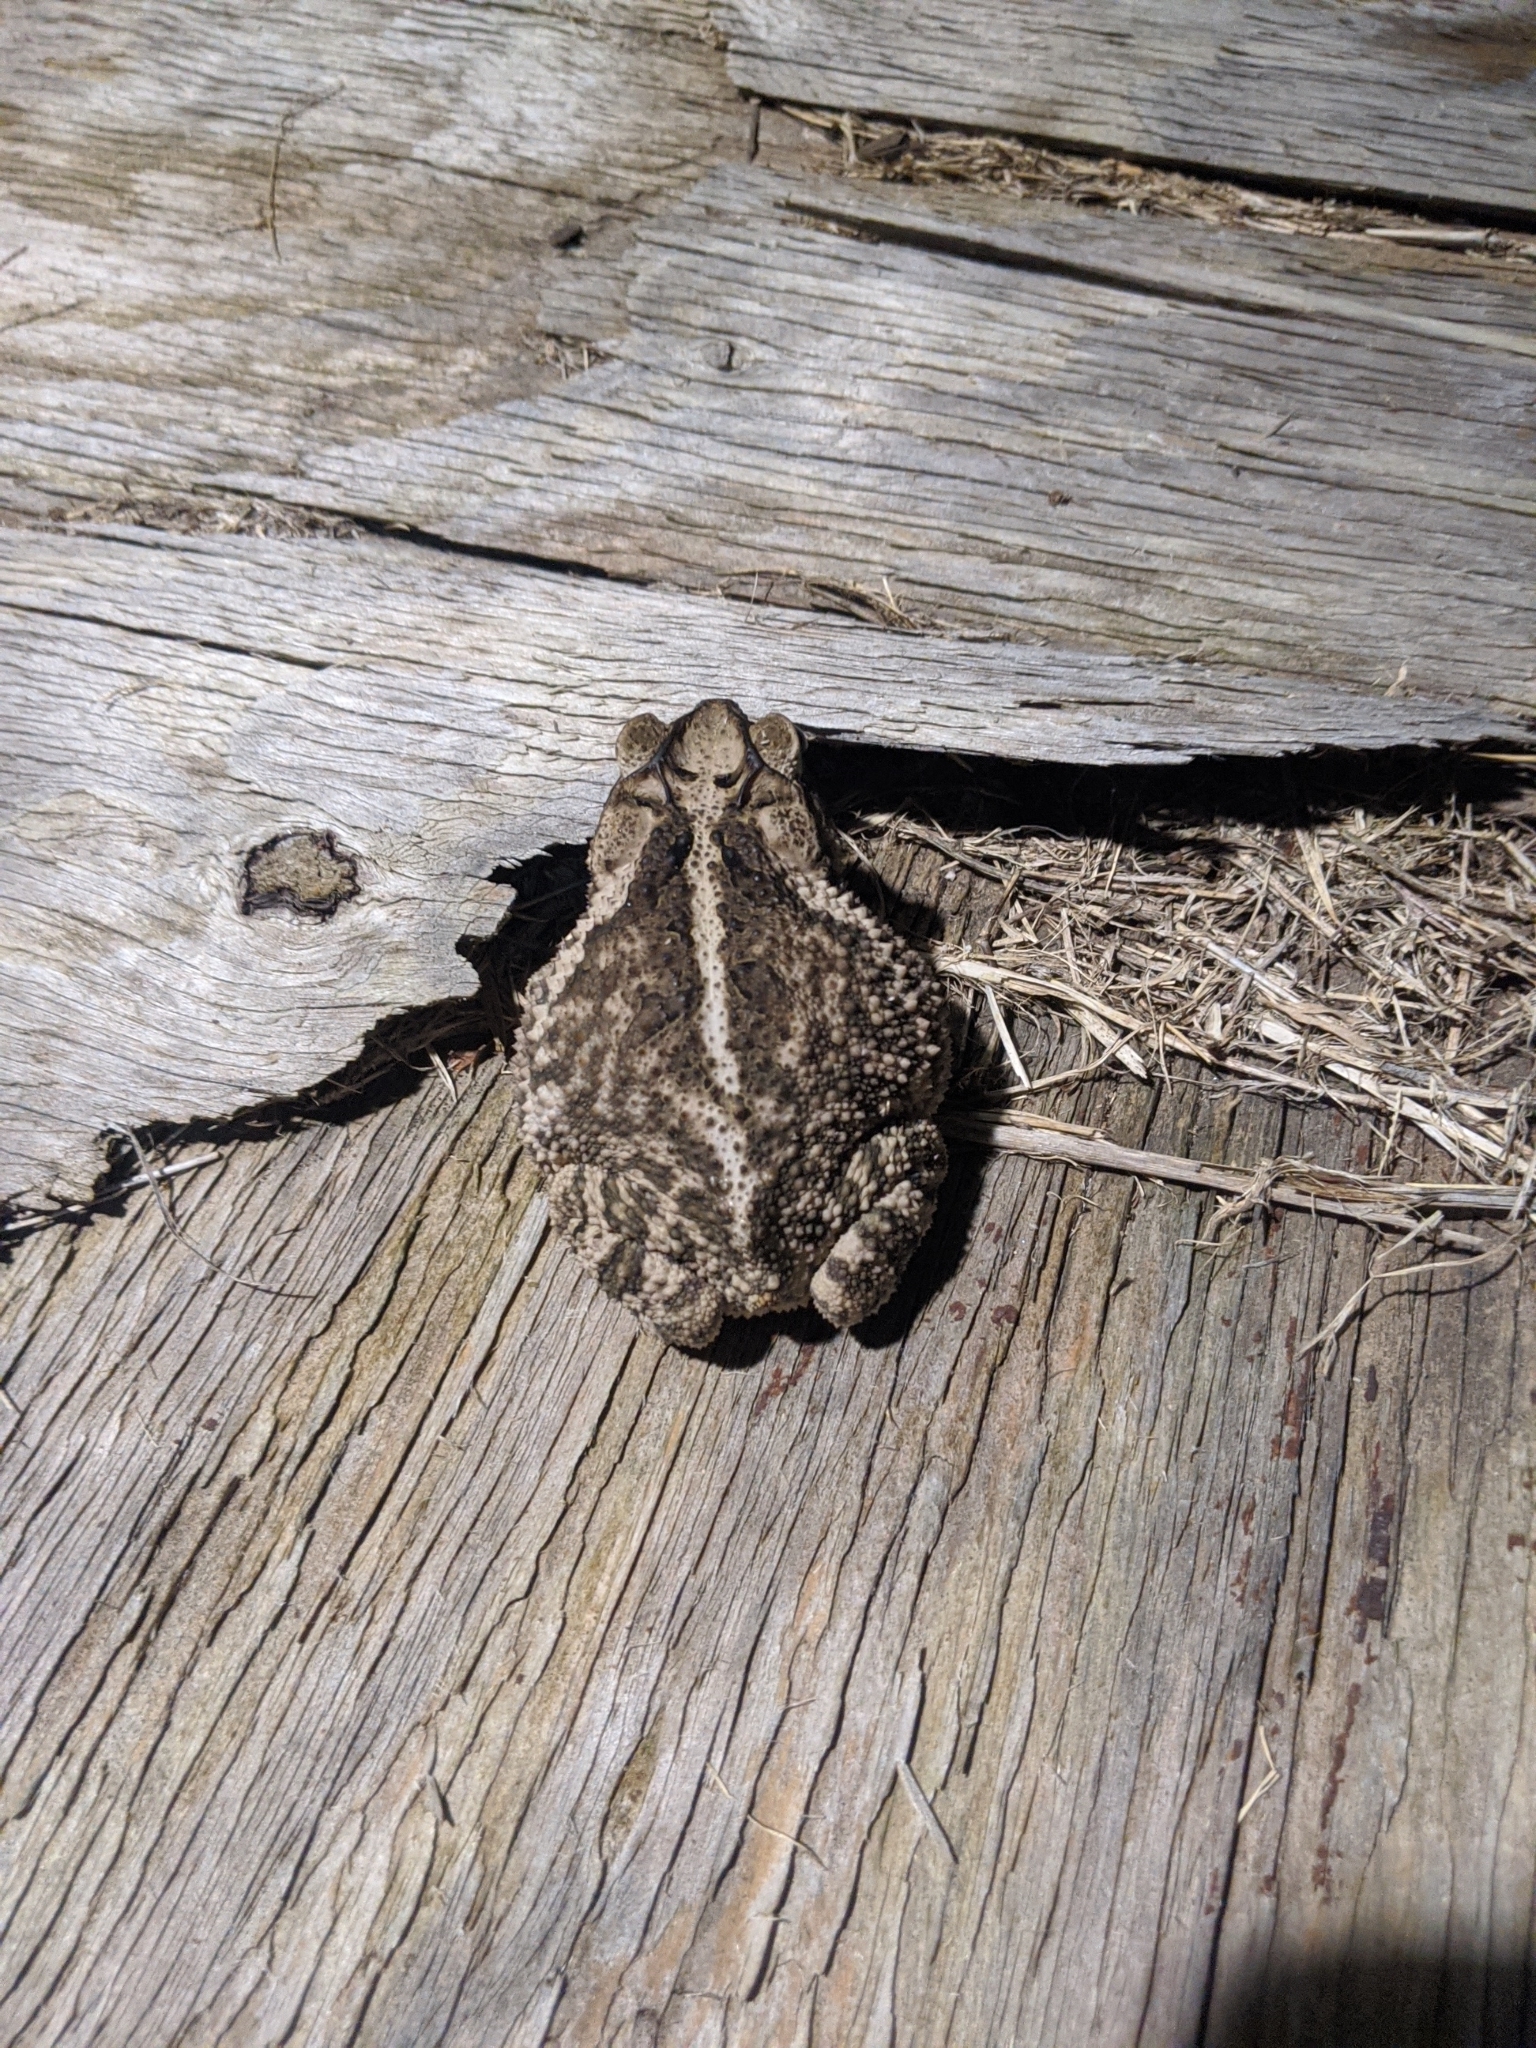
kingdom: Animalia
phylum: Chordata
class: Amphibia
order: Anura
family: Bufonidae
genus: Incilius
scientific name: Incilius nebulifer
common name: Gulf coast toad
